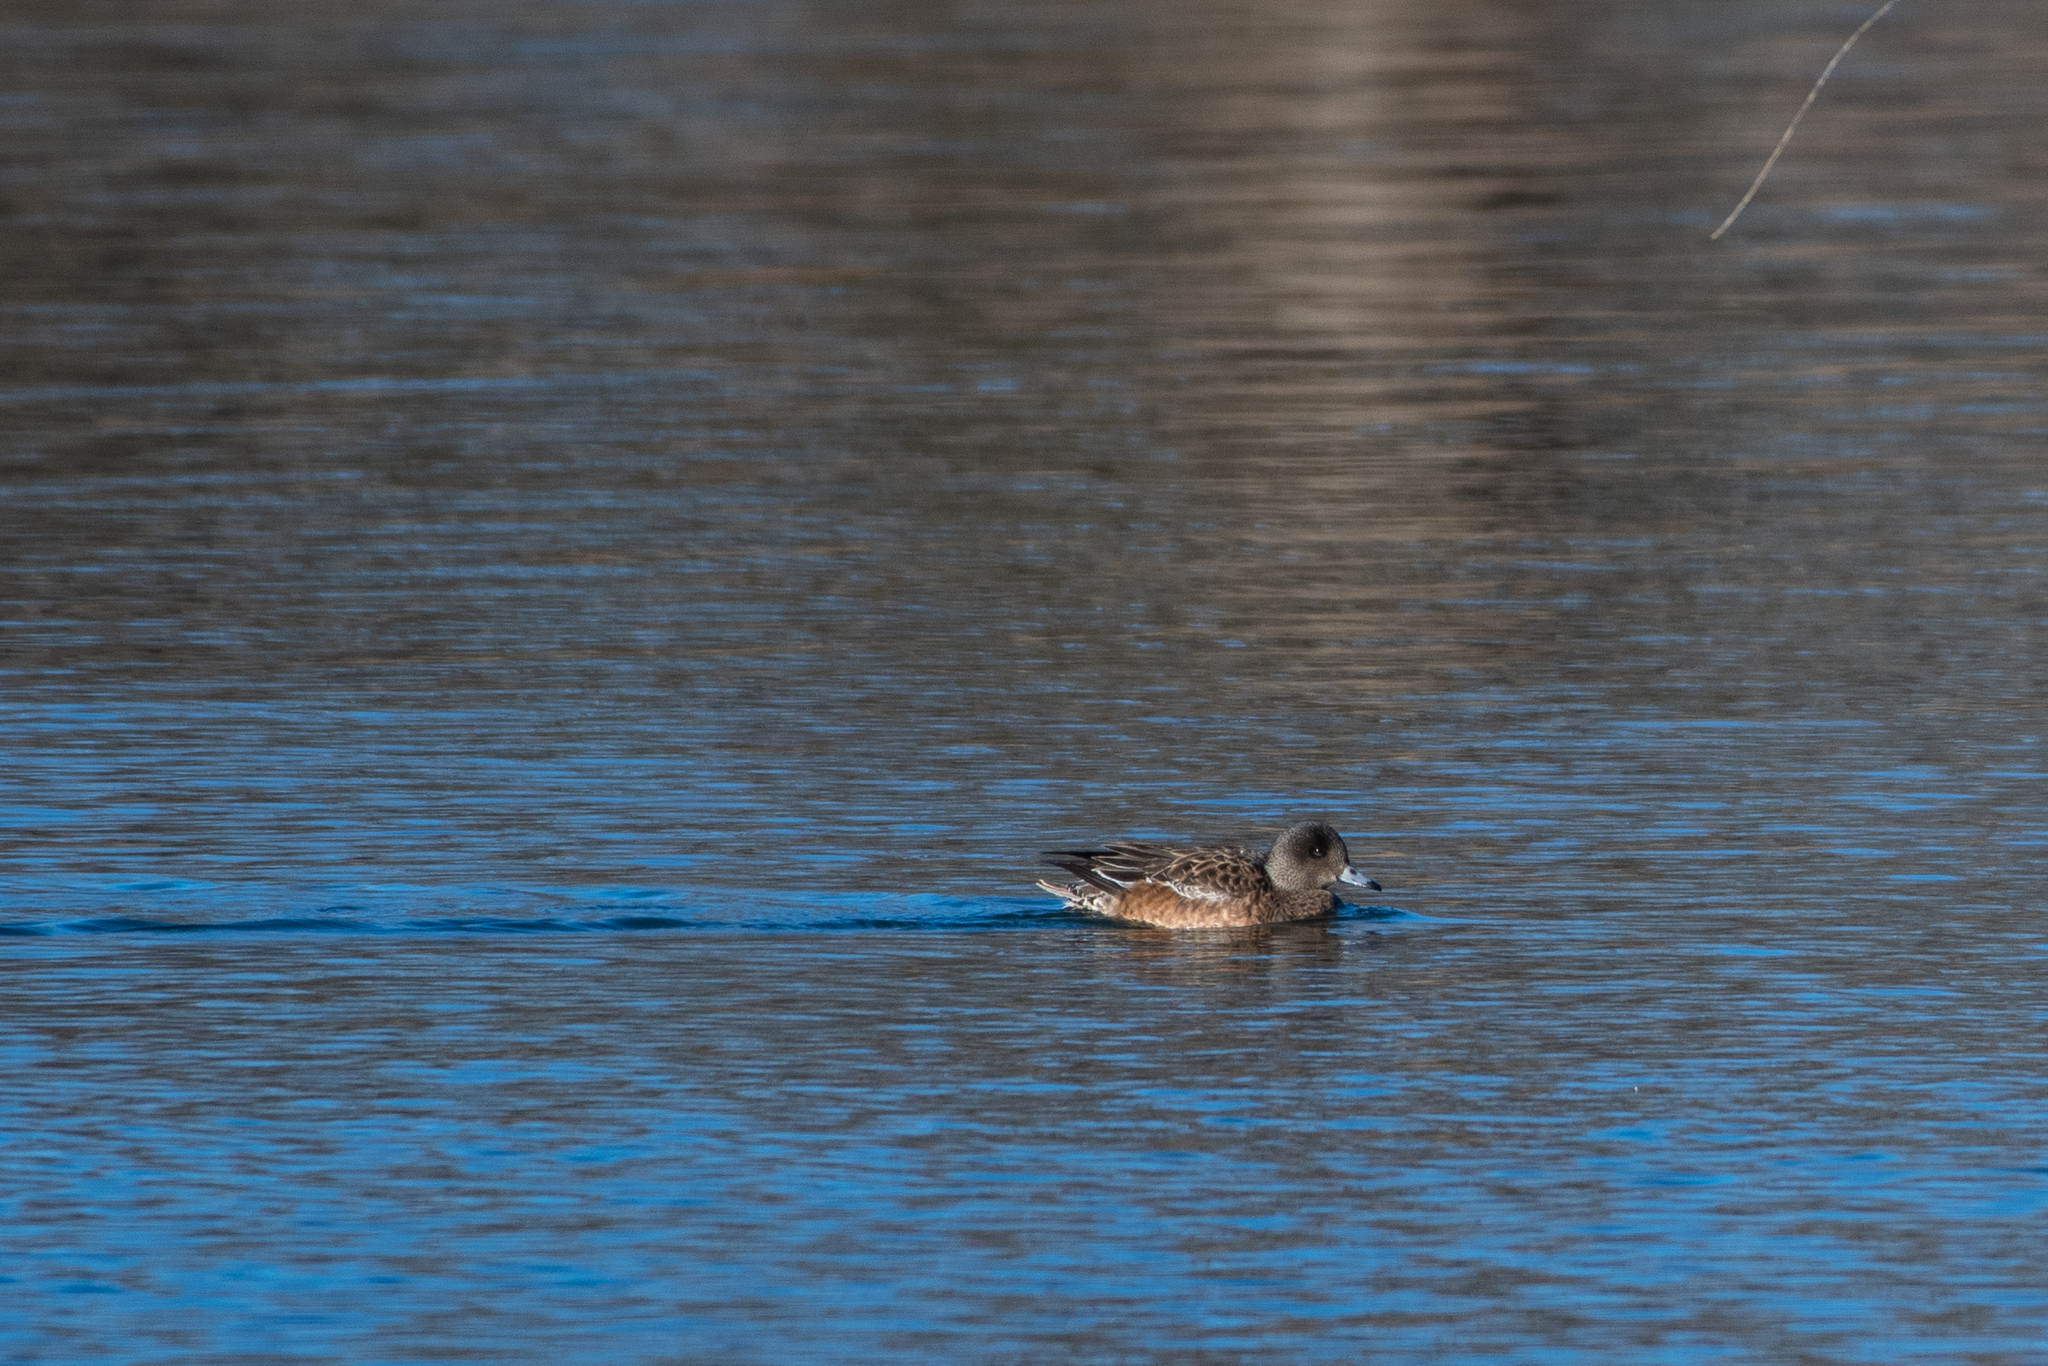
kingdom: Animalia
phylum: Chordata
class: Aves
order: Anseriformes
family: Anatidae
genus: Mareca
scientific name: Mareca americana
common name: American wigeon
